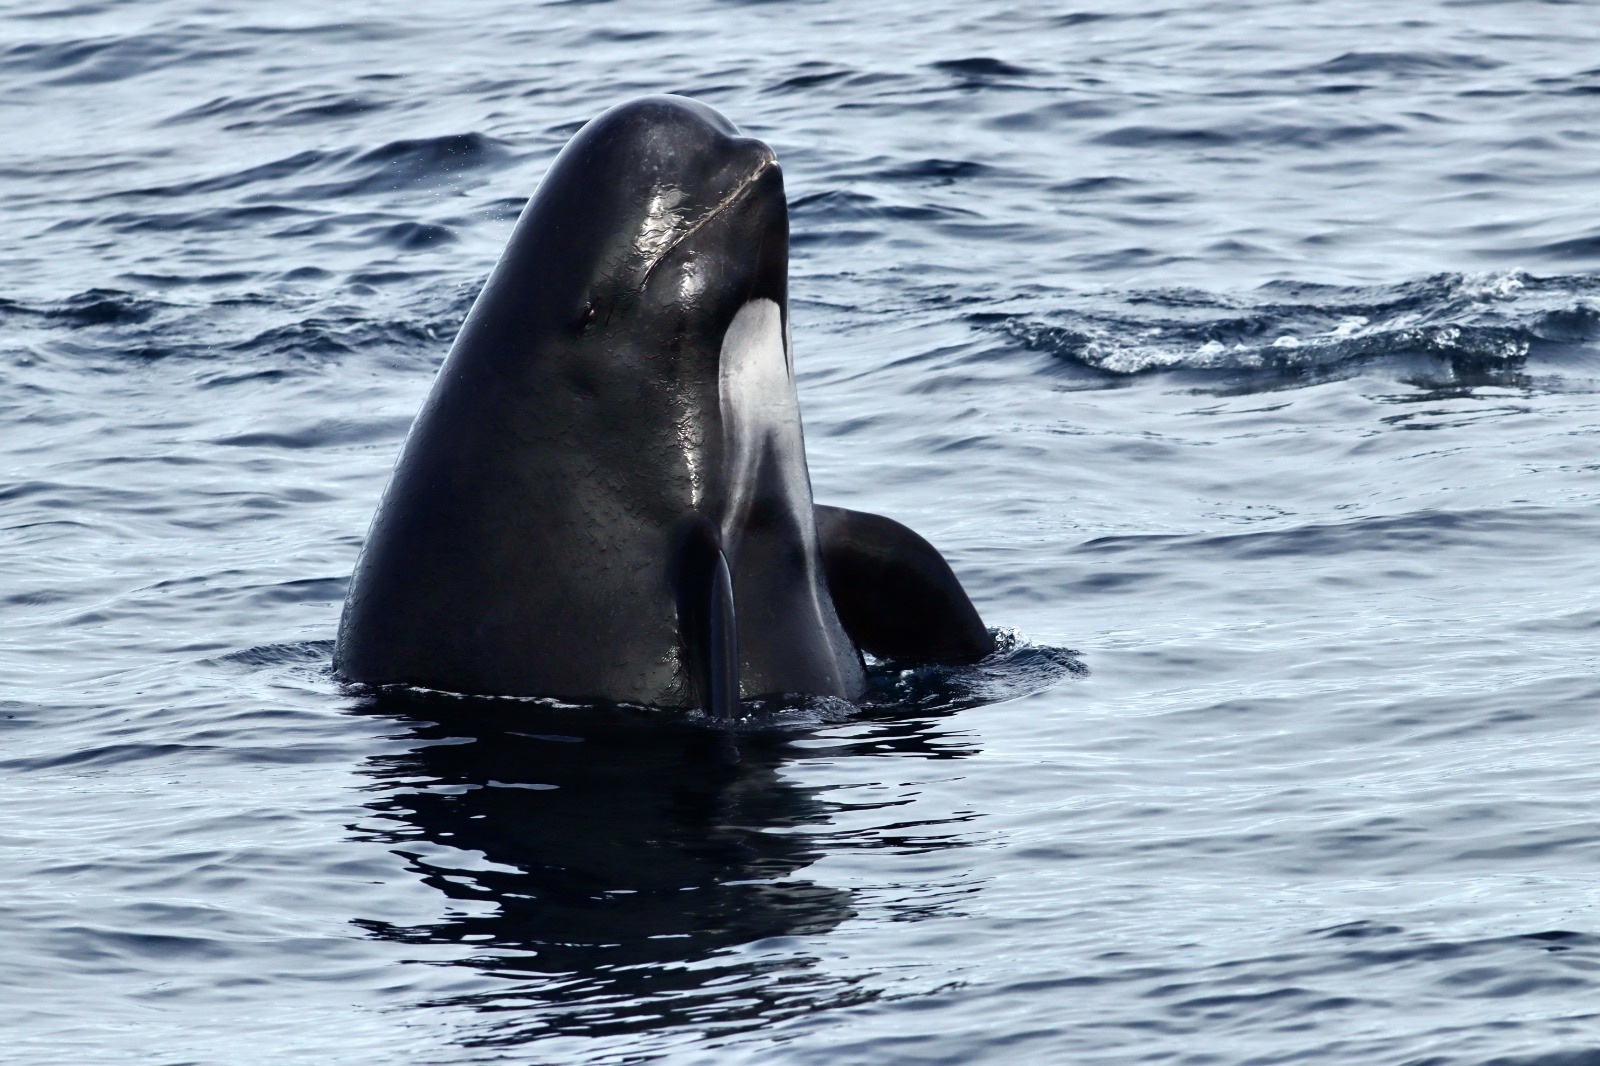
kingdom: Animalia
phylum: Chordata
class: Mammalia
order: Cetacea
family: Delphinidae
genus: Globicephala
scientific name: Globicephala melas
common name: Long-finned pilot whale
